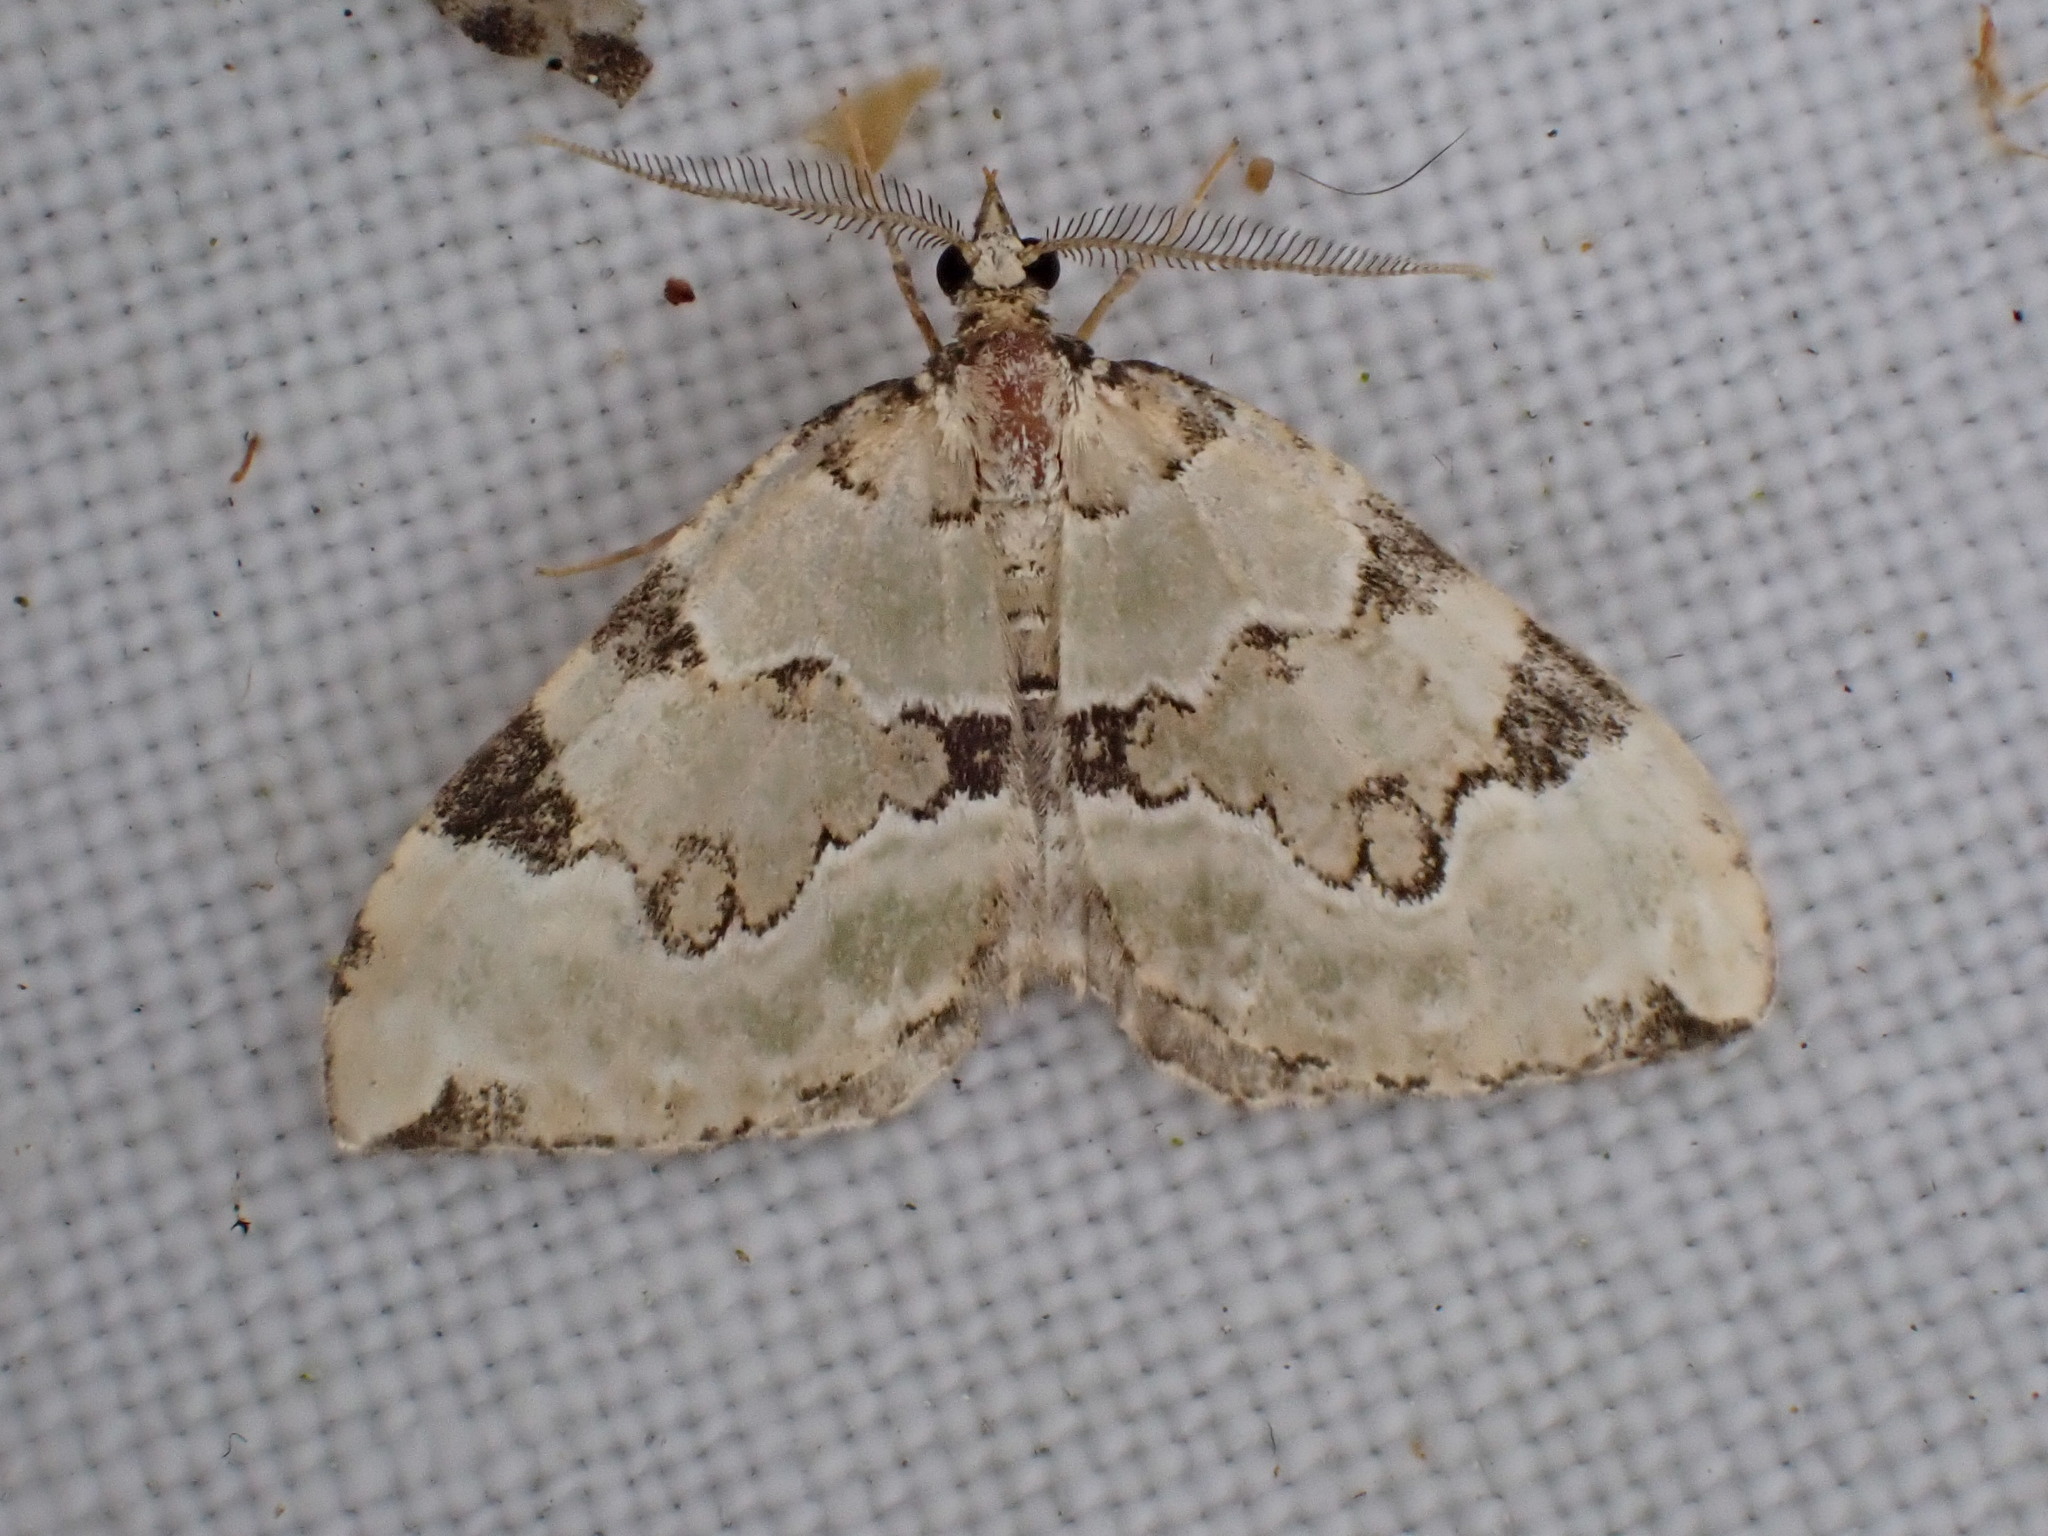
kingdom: Animalia
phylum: Arthropoda
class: Insecta
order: Lepidoptera
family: Geometridae
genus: Colostygia
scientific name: Colostygia pectinataria
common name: Green carpet
